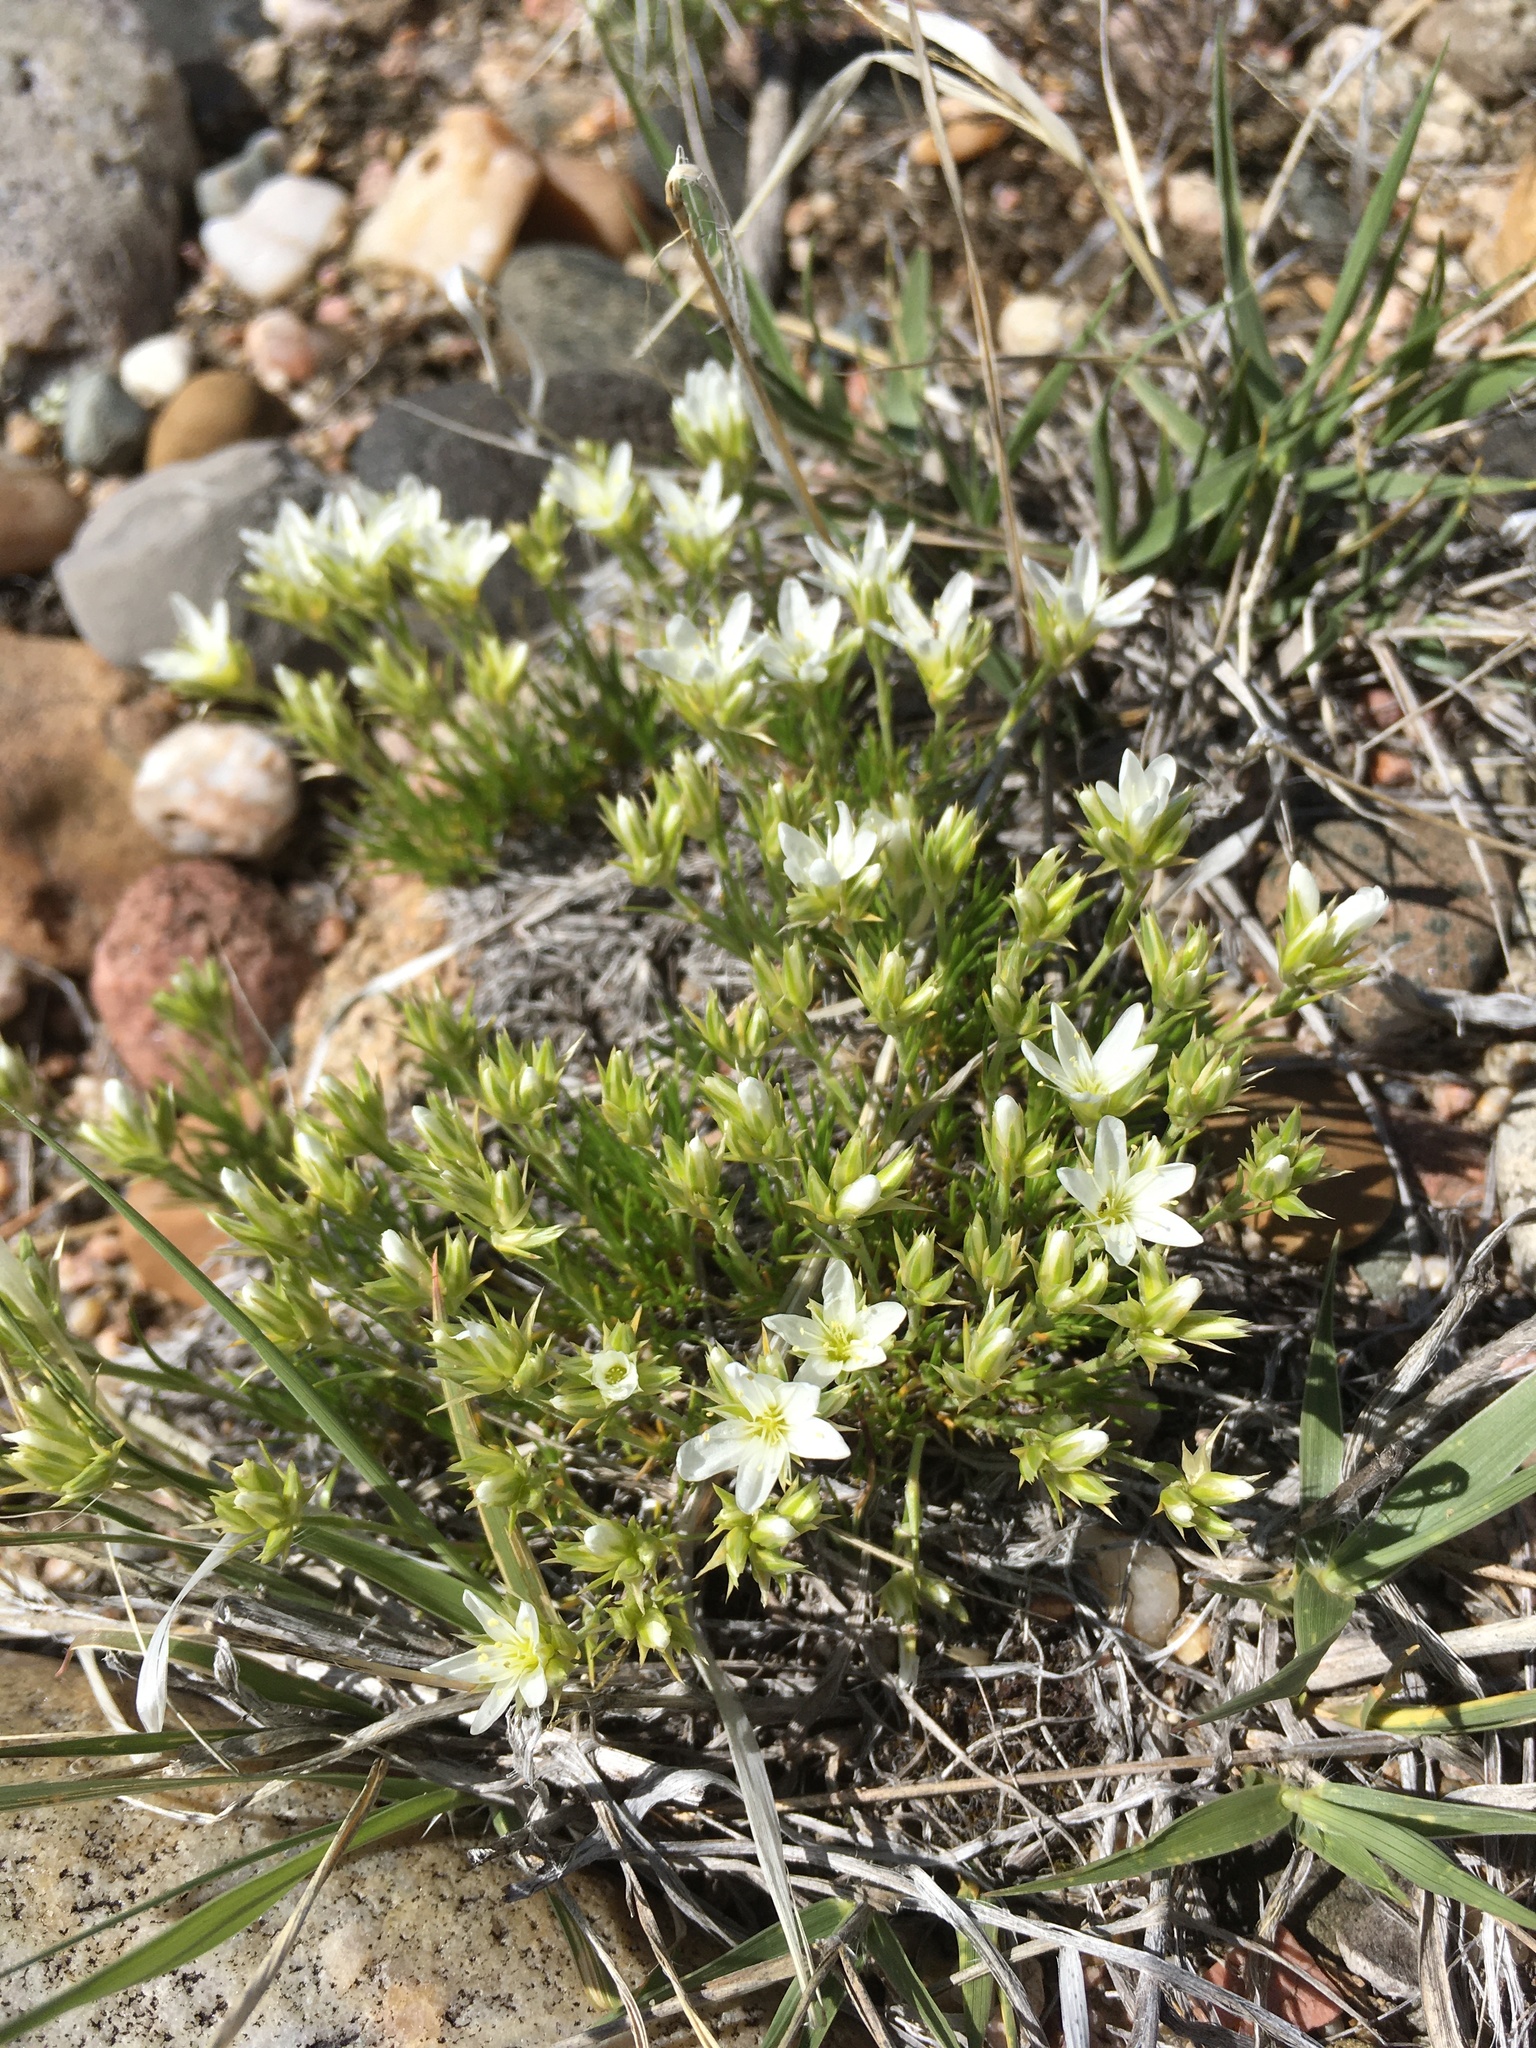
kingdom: Plantae
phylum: Tracheophyta
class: Magnoliopsida
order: Caryophyllales
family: Caryophyllaceae
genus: Eremogone
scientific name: Eremogone hookeri
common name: Hooker's sandwort
